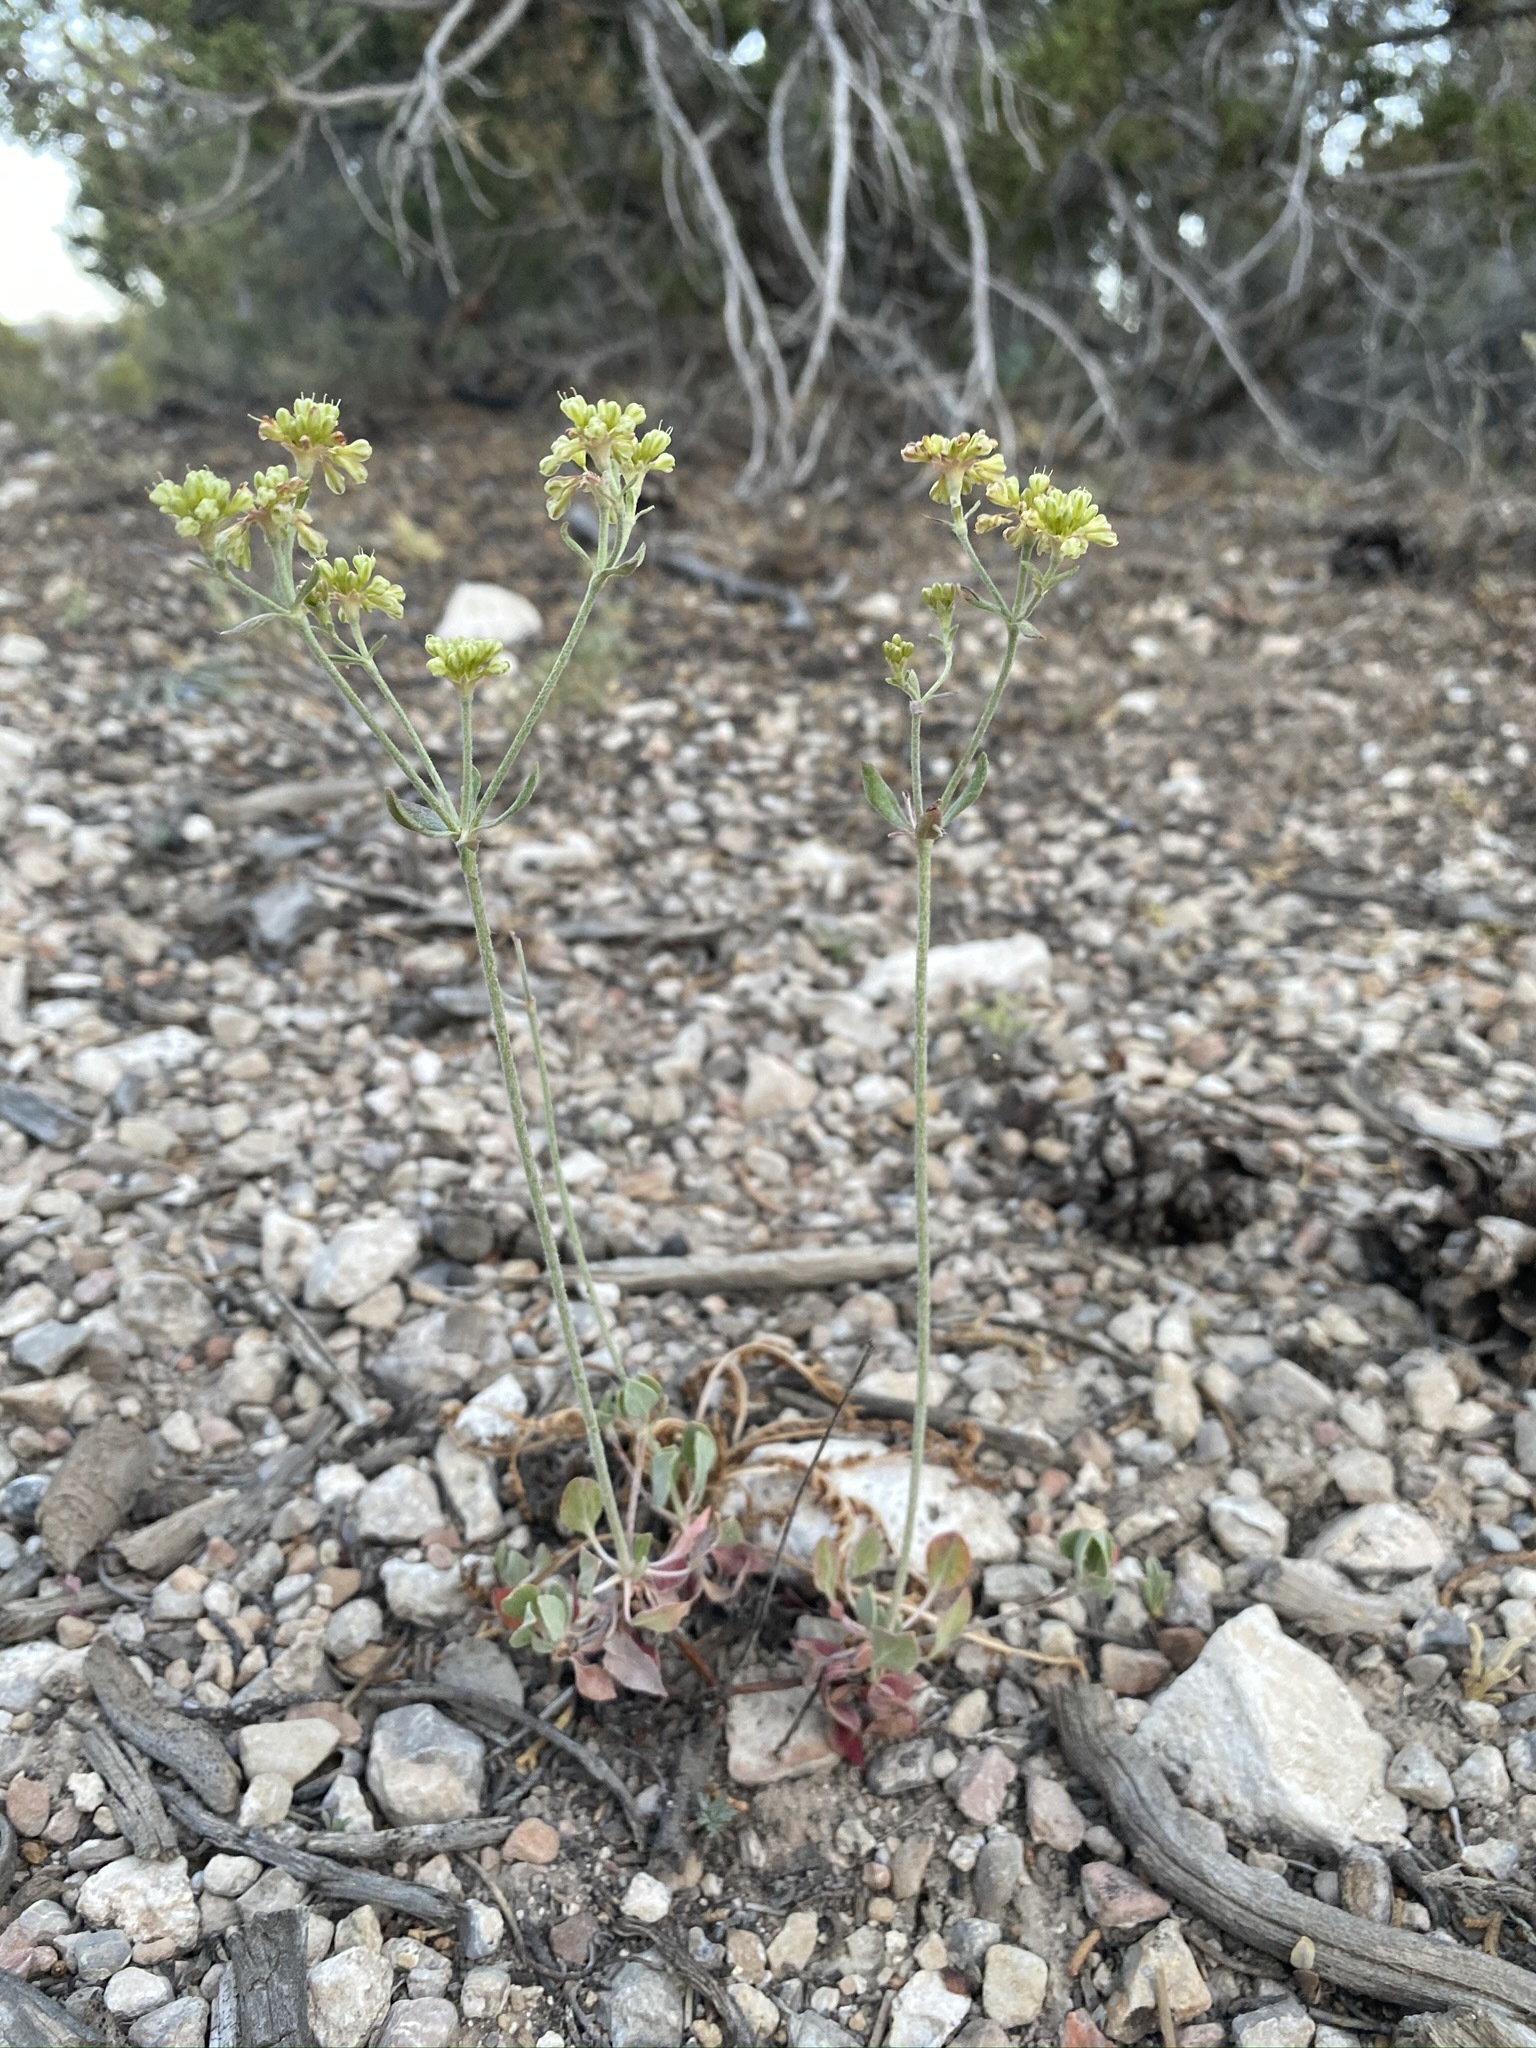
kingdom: Plantae
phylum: Tracheophyta
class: Magnoliopsida
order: Caryophyllales
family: Polygonaceae
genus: Eriogonum
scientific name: Eriogonum umbellatum
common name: Sulfur-buckwheat
